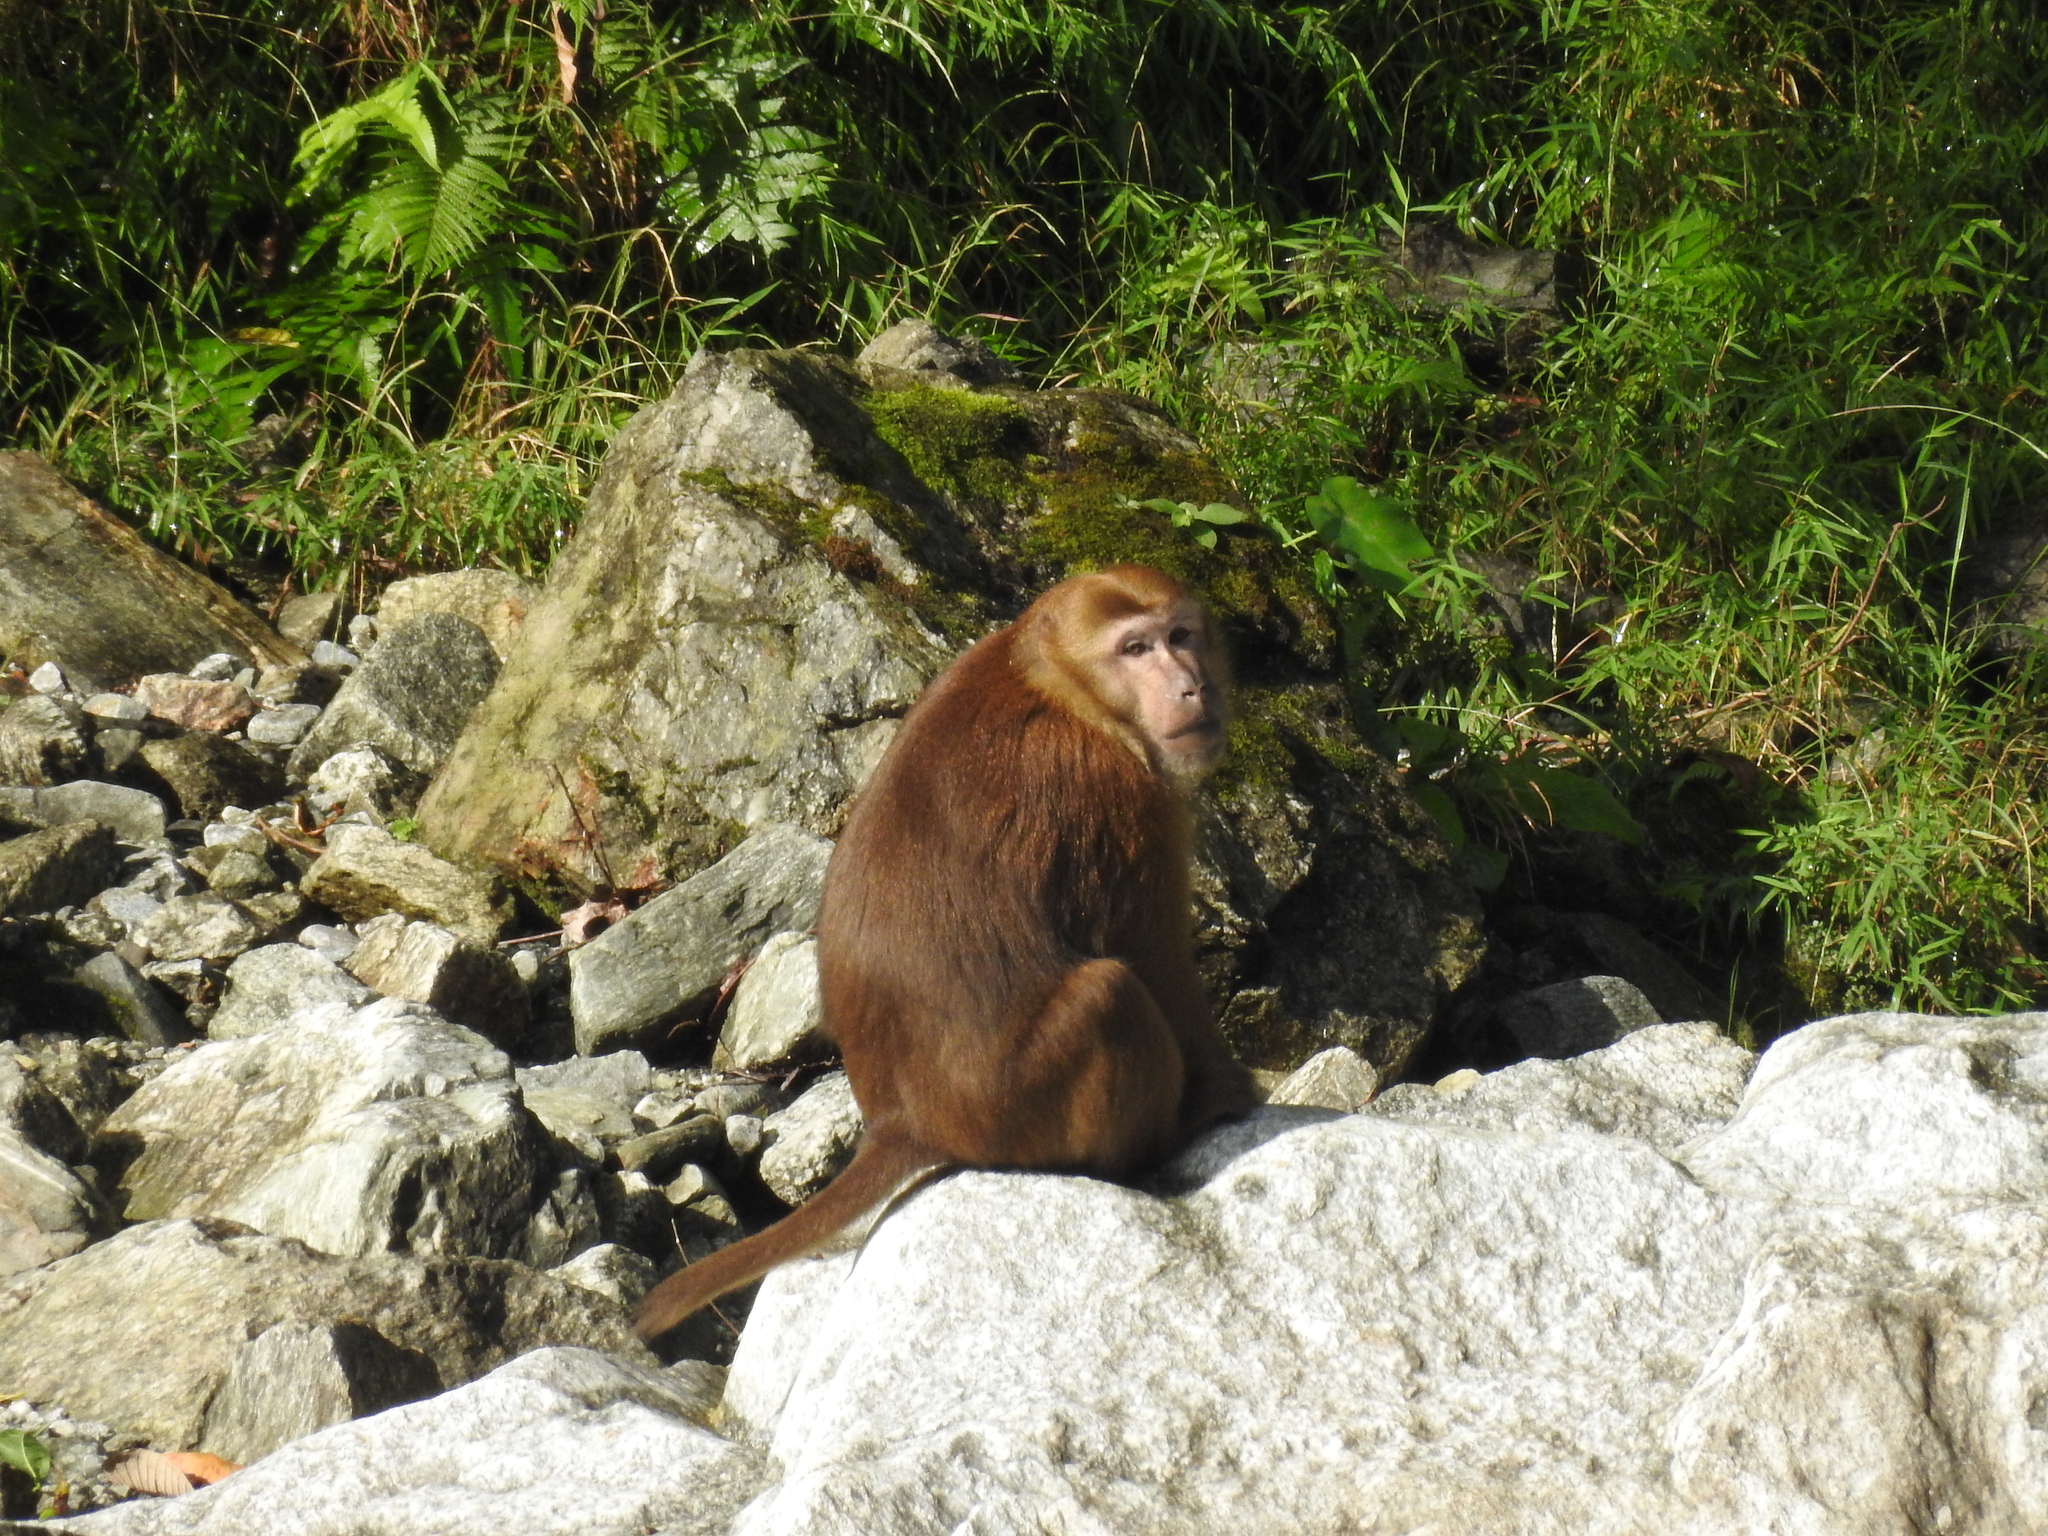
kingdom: Animalia
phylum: Chordata
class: Mammalia
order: Primates
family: Cercopithecidae
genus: Macaca
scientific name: Macaca assamensis
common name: Assam macaque
